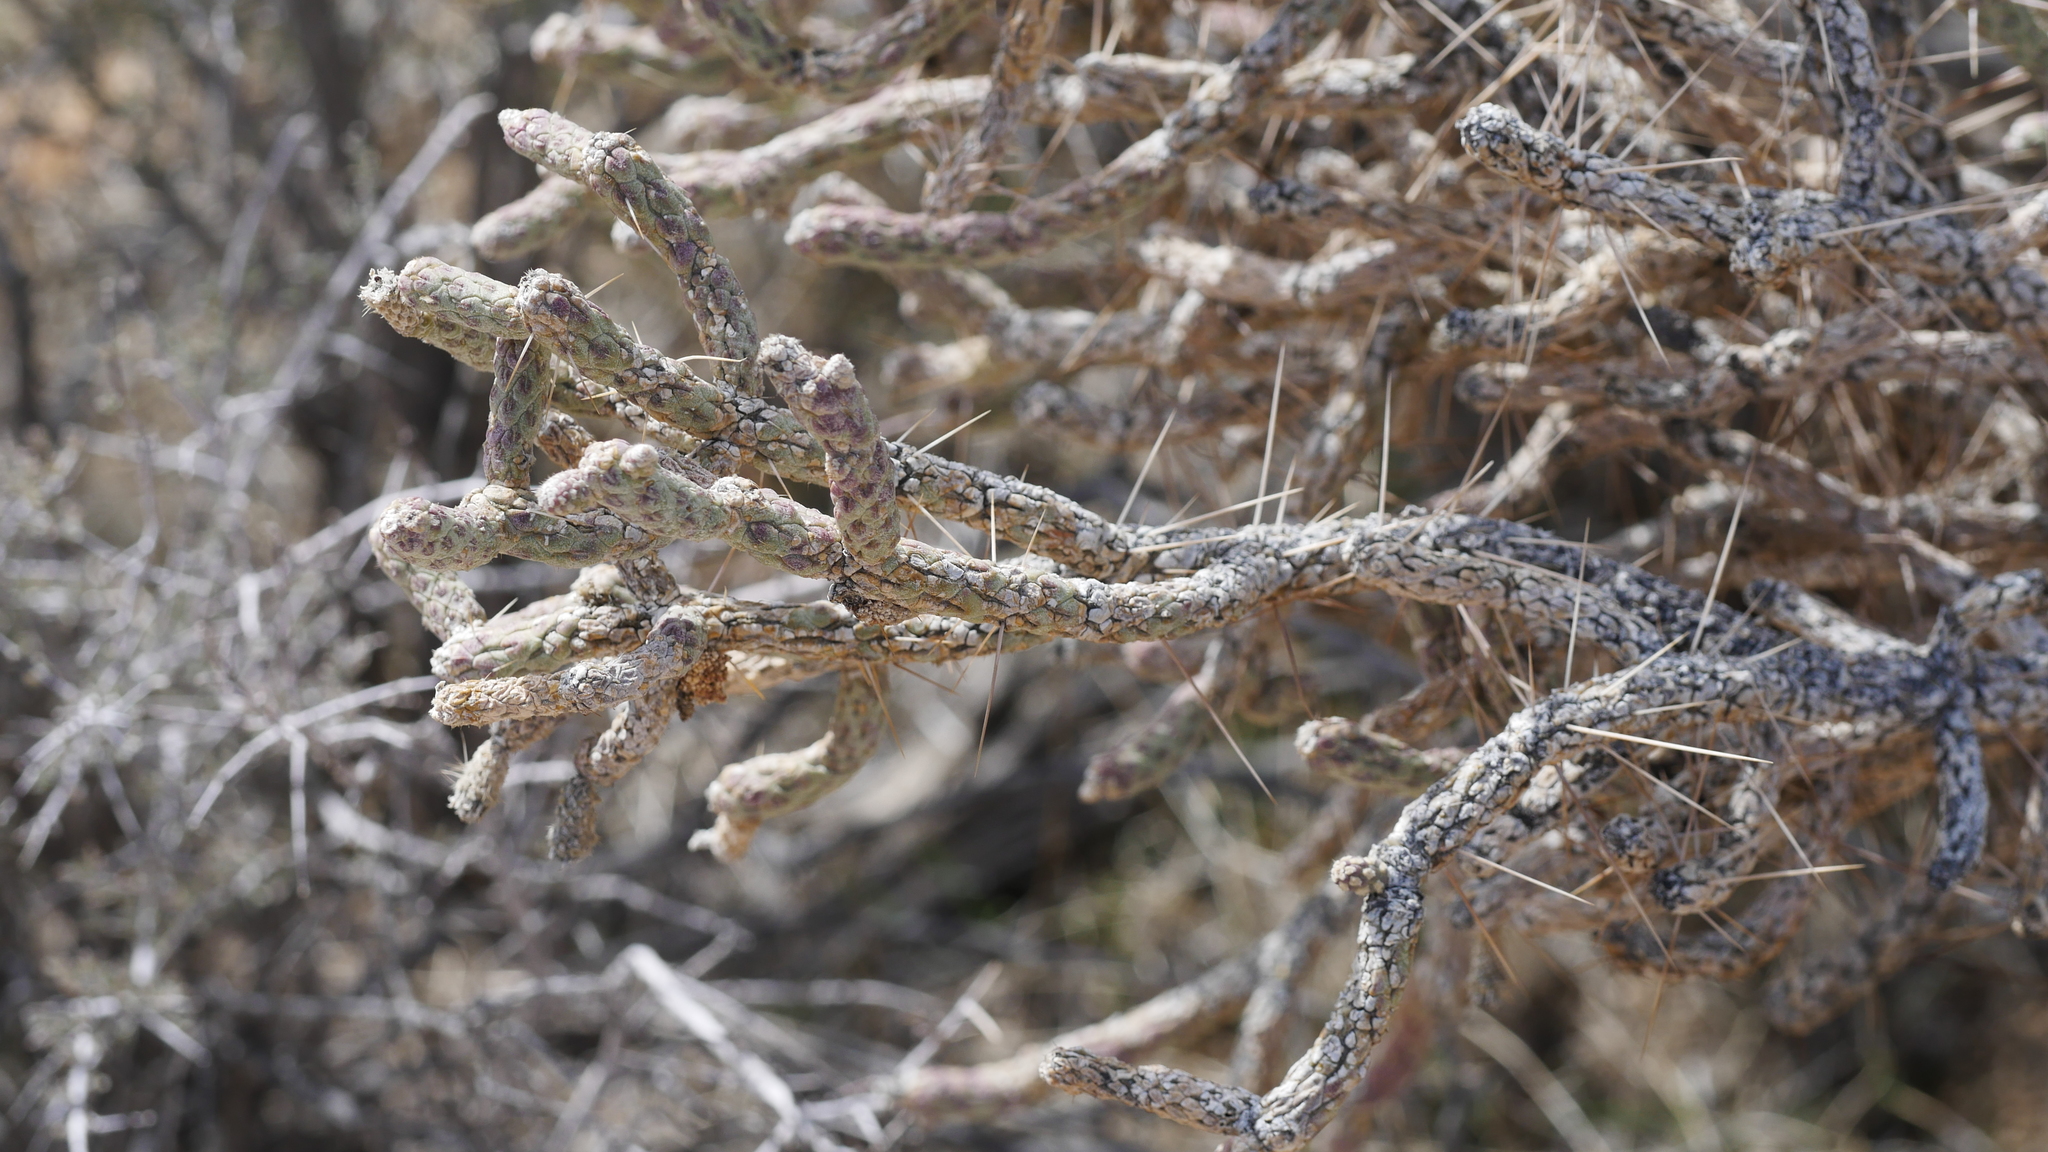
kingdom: Plantae
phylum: Tracheophyta
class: Magnoliopsida
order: Caryophyllales
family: Cactaceae
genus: Cylindropuntia
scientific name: Cylindropuntia ramosissima
